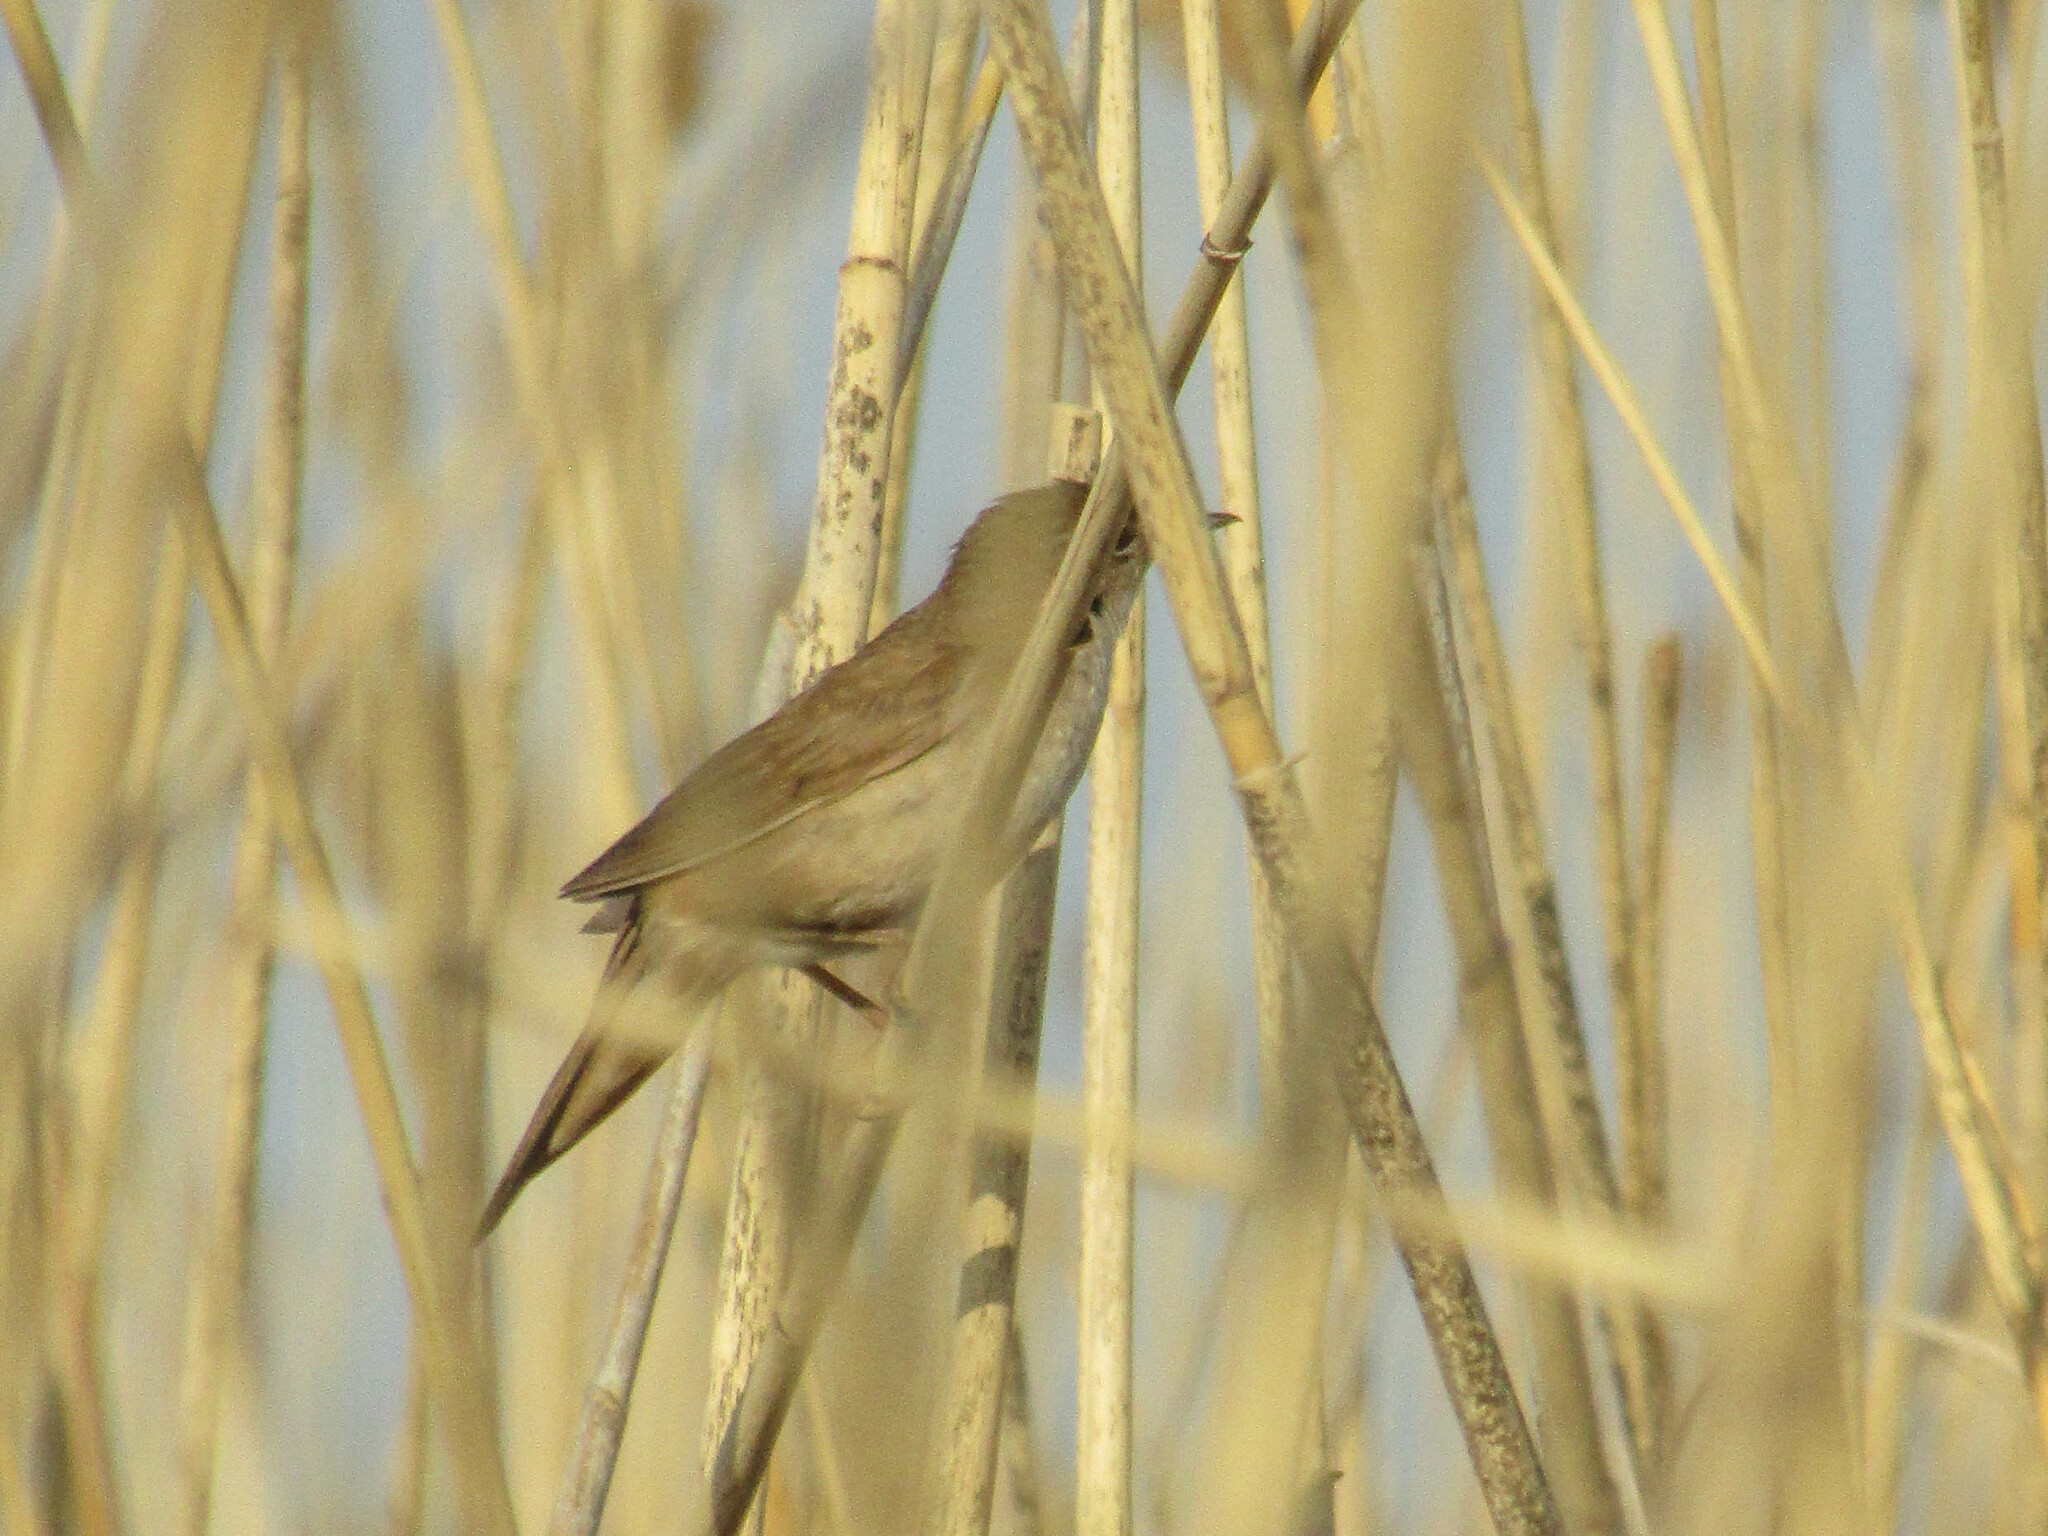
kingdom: Animalia
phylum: Chordata
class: Aves
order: Passeriformes
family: Locustellidae
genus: Locustella
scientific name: Locustella luscinioides
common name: Savi's warbler
